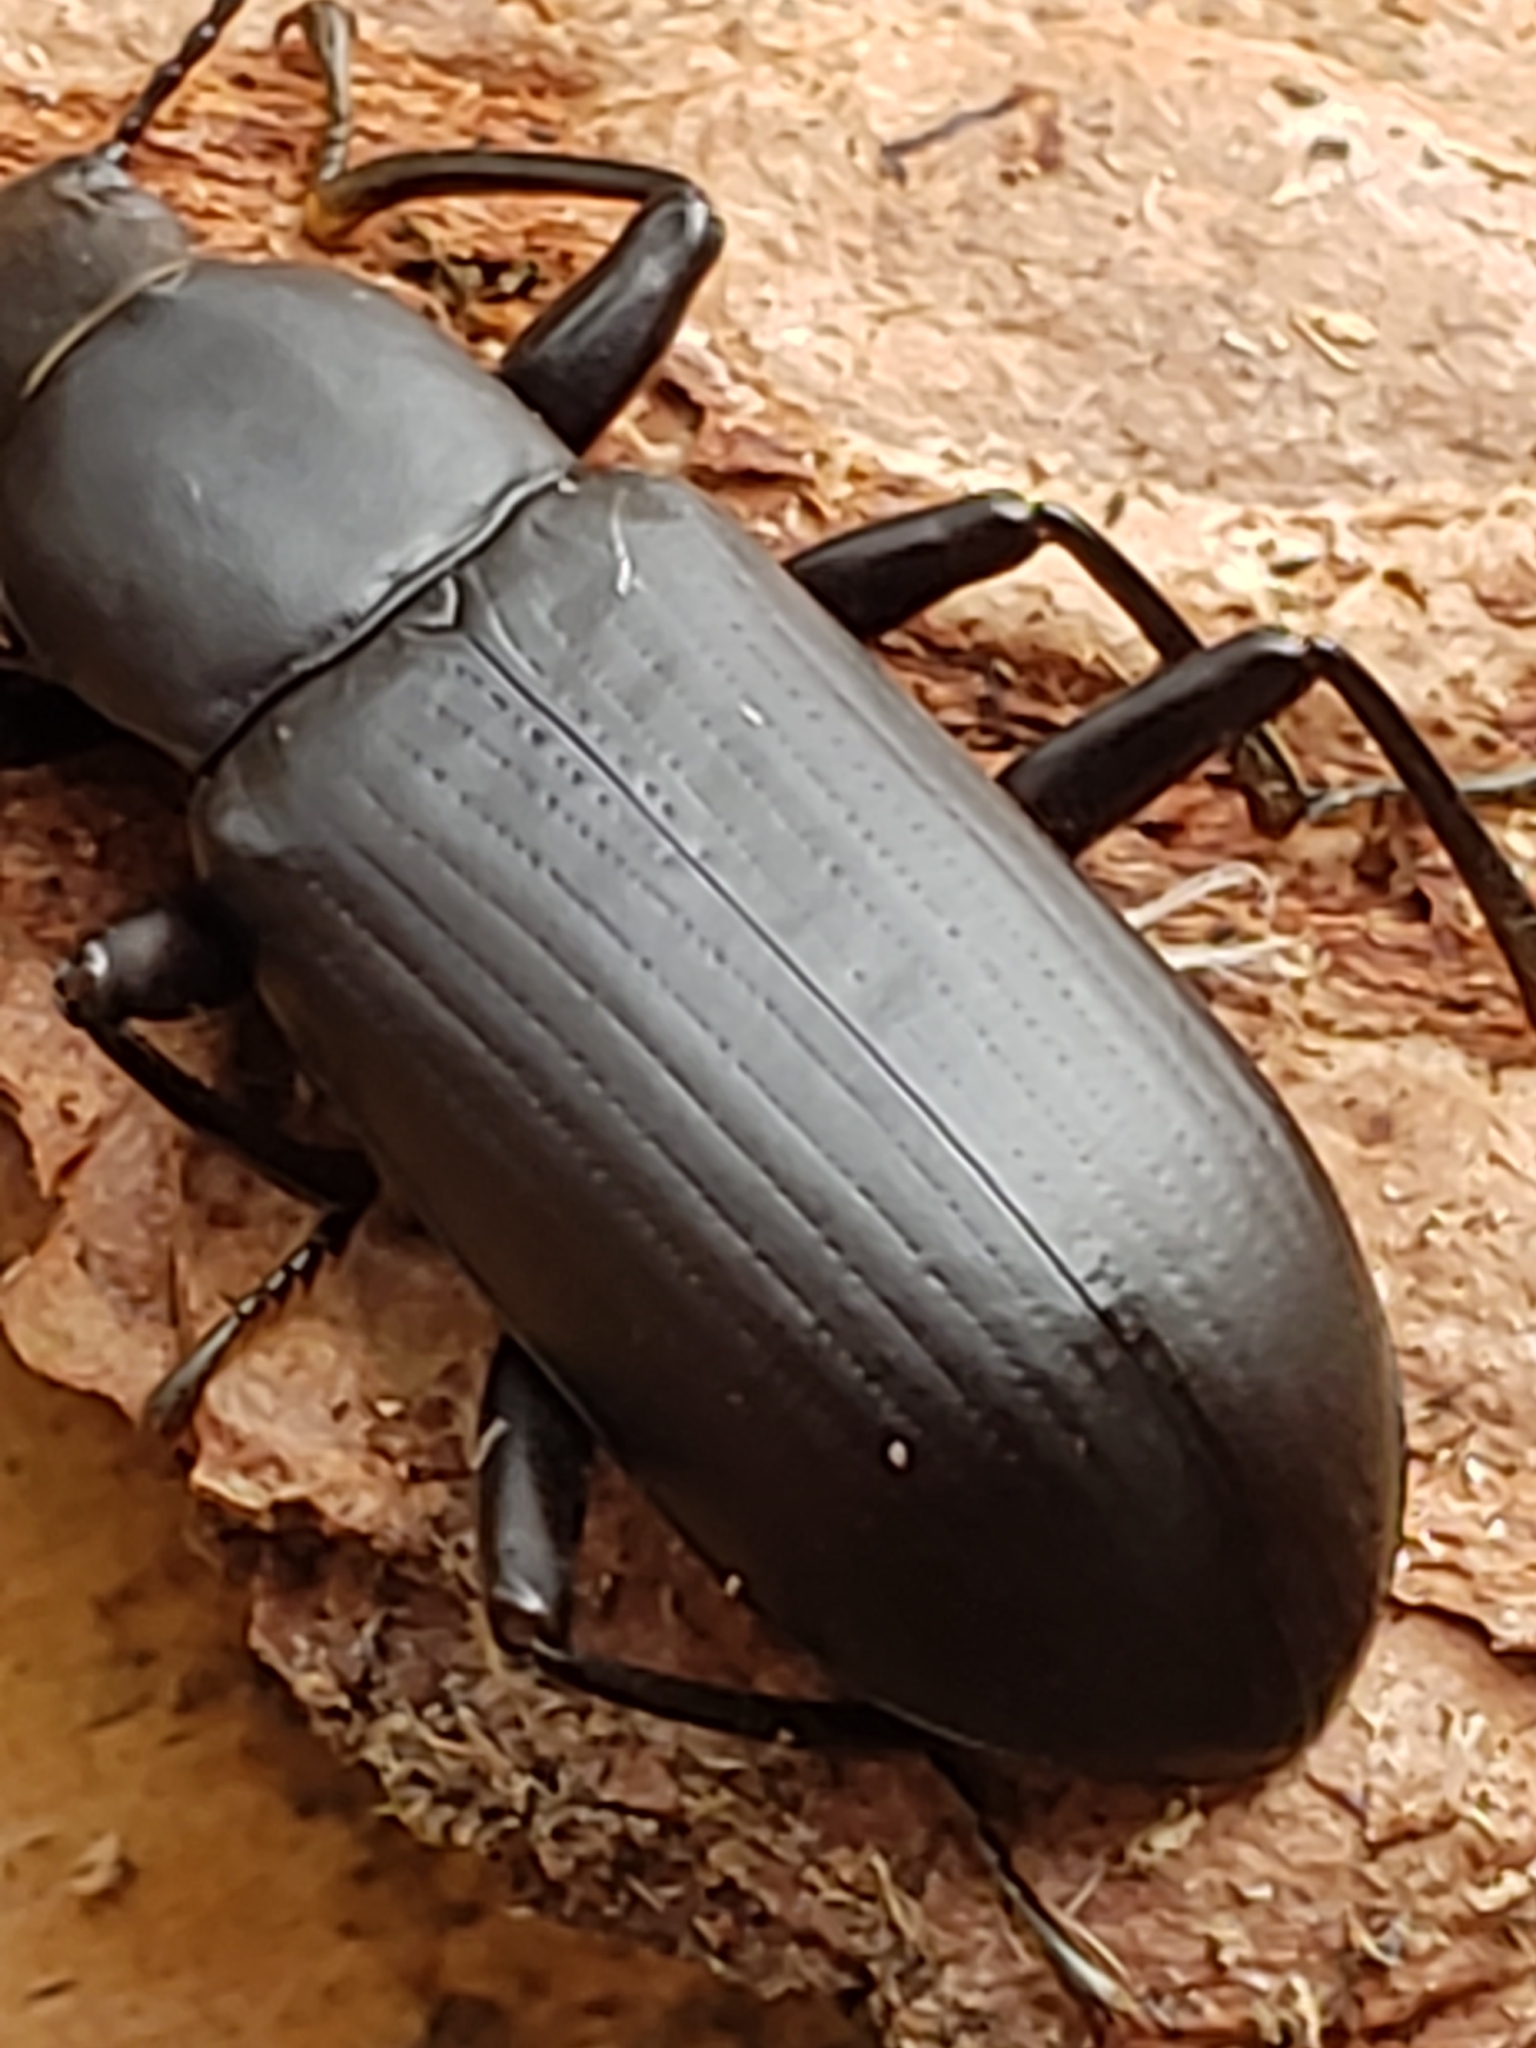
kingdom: Animalia
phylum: Arthropoda
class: Insecta
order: Coleoptera
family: Tenebrionidae
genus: Alobates
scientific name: Alobates pensylvanicus
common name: False mealworm beetle
